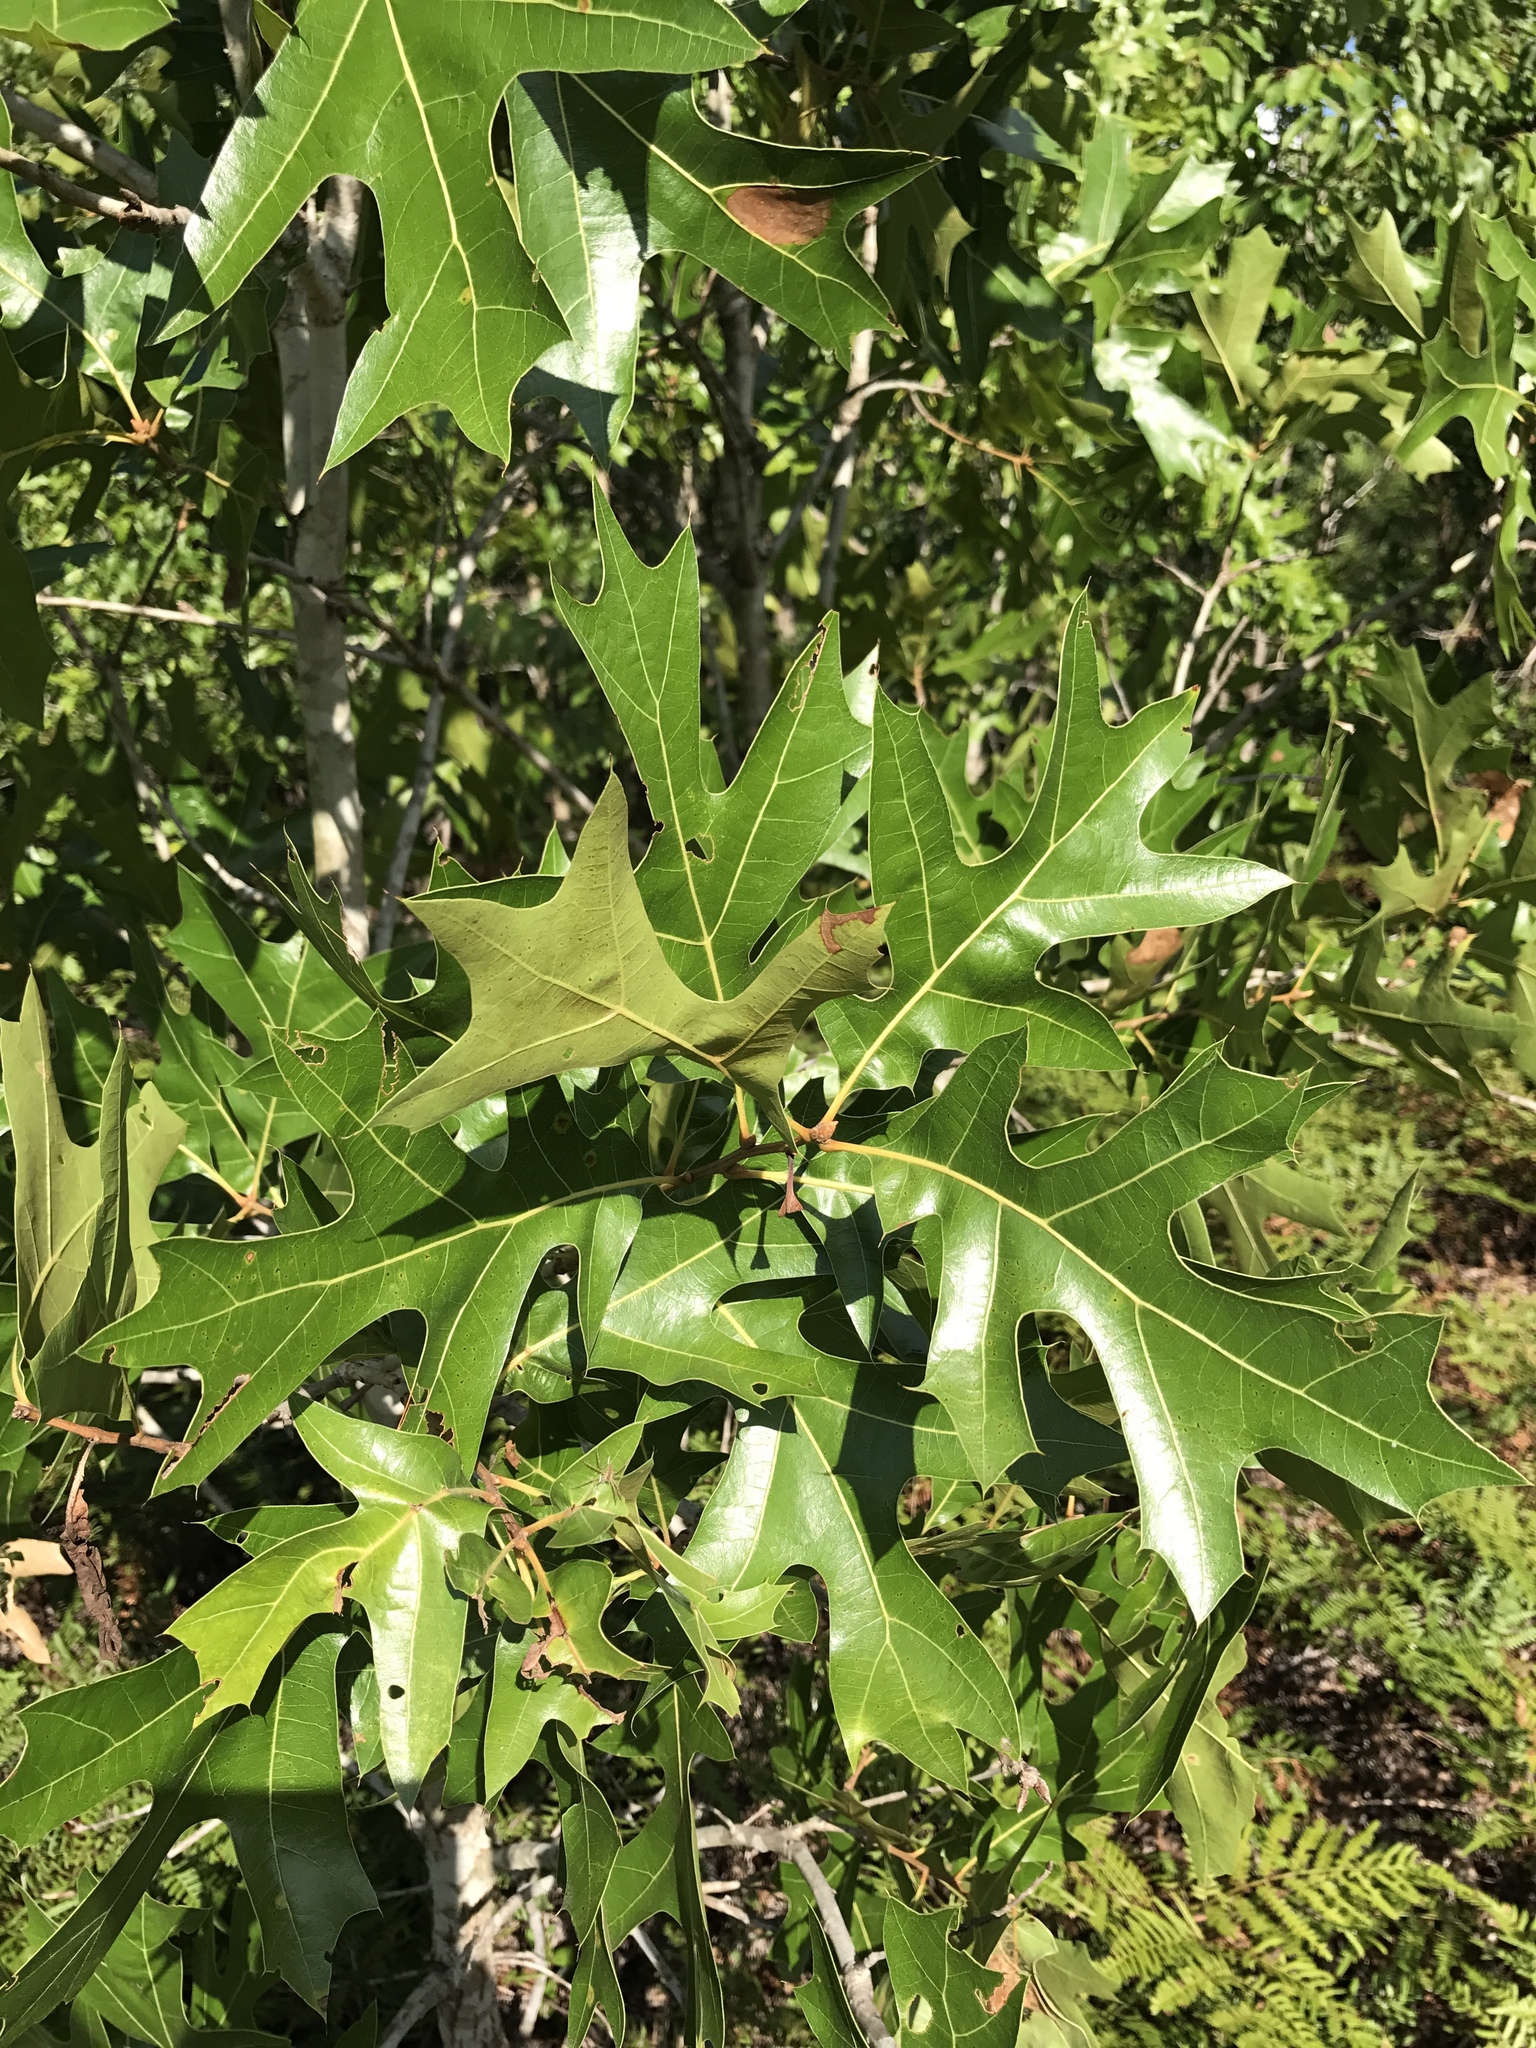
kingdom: Plantae
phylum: Tracheophyta
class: Magnoliopsida
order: Fagales
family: Fagaceae
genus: Quercus
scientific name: Quercus laevis
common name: Turkey oak
